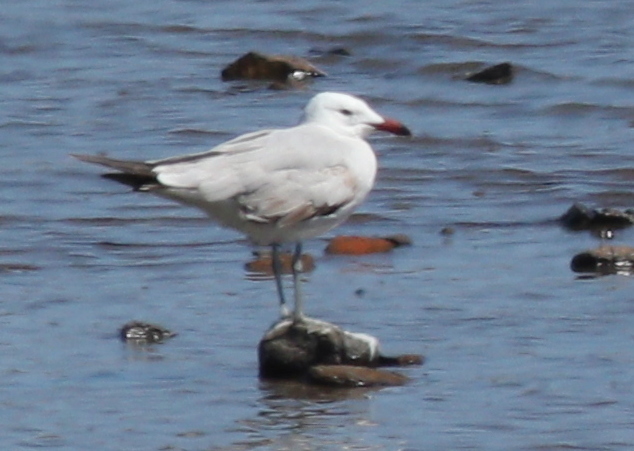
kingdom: Animalia
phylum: Chordata
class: Aves
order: Charadriiformes
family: Laridae
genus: Ichthyaetus
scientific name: Ichthyaetus audouinii
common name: Audouin's gull
